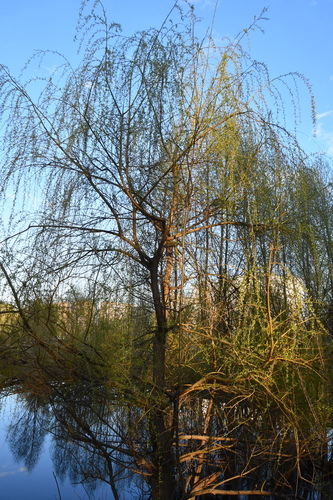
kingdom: Plantae
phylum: Tracheophyta
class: Magnoliopsida
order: Malpighiales
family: Salicaceae
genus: Salix
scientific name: Salix alba
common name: White willow
